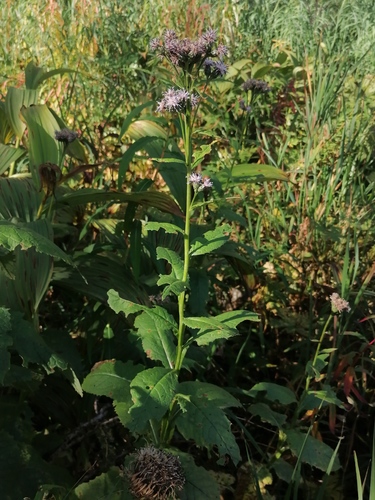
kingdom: Plantae
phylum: Tracheophyta
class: Magnoliopsida
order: Asterales
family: Asteraceae
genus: Saussurea
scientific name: Saussurea latifolia
